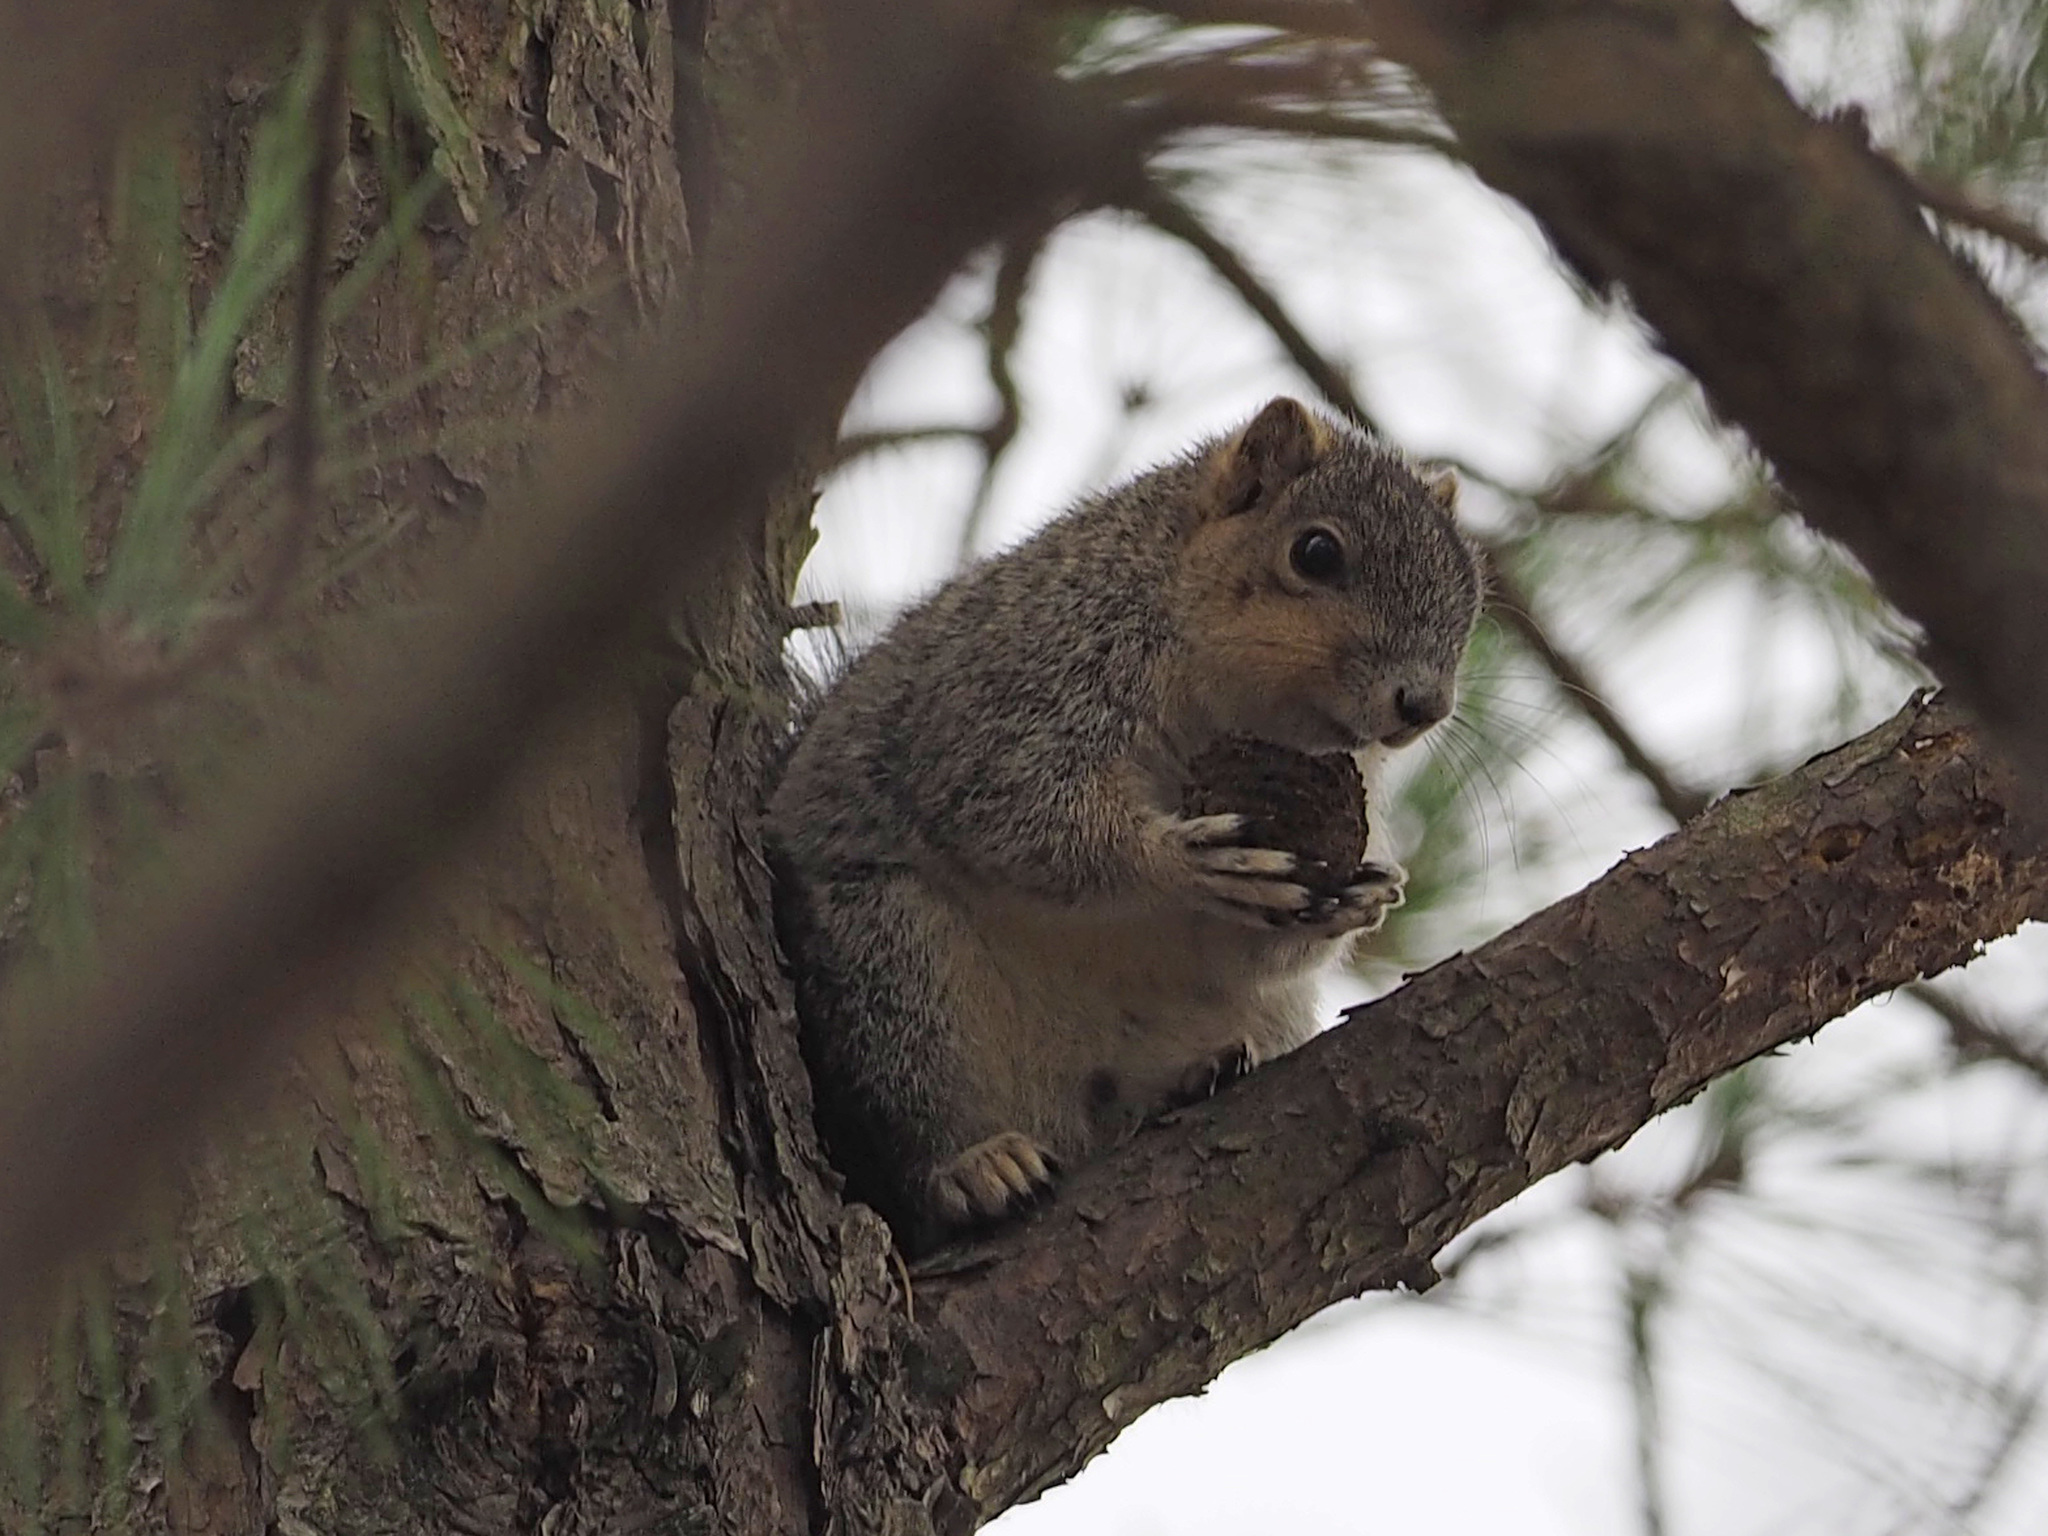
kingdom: Animalia
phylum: Chordata
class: Mammalia
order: Rodentia
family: Sciuridae
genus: Sciurus
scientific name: Sciurus niger
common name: Fox squirrel
